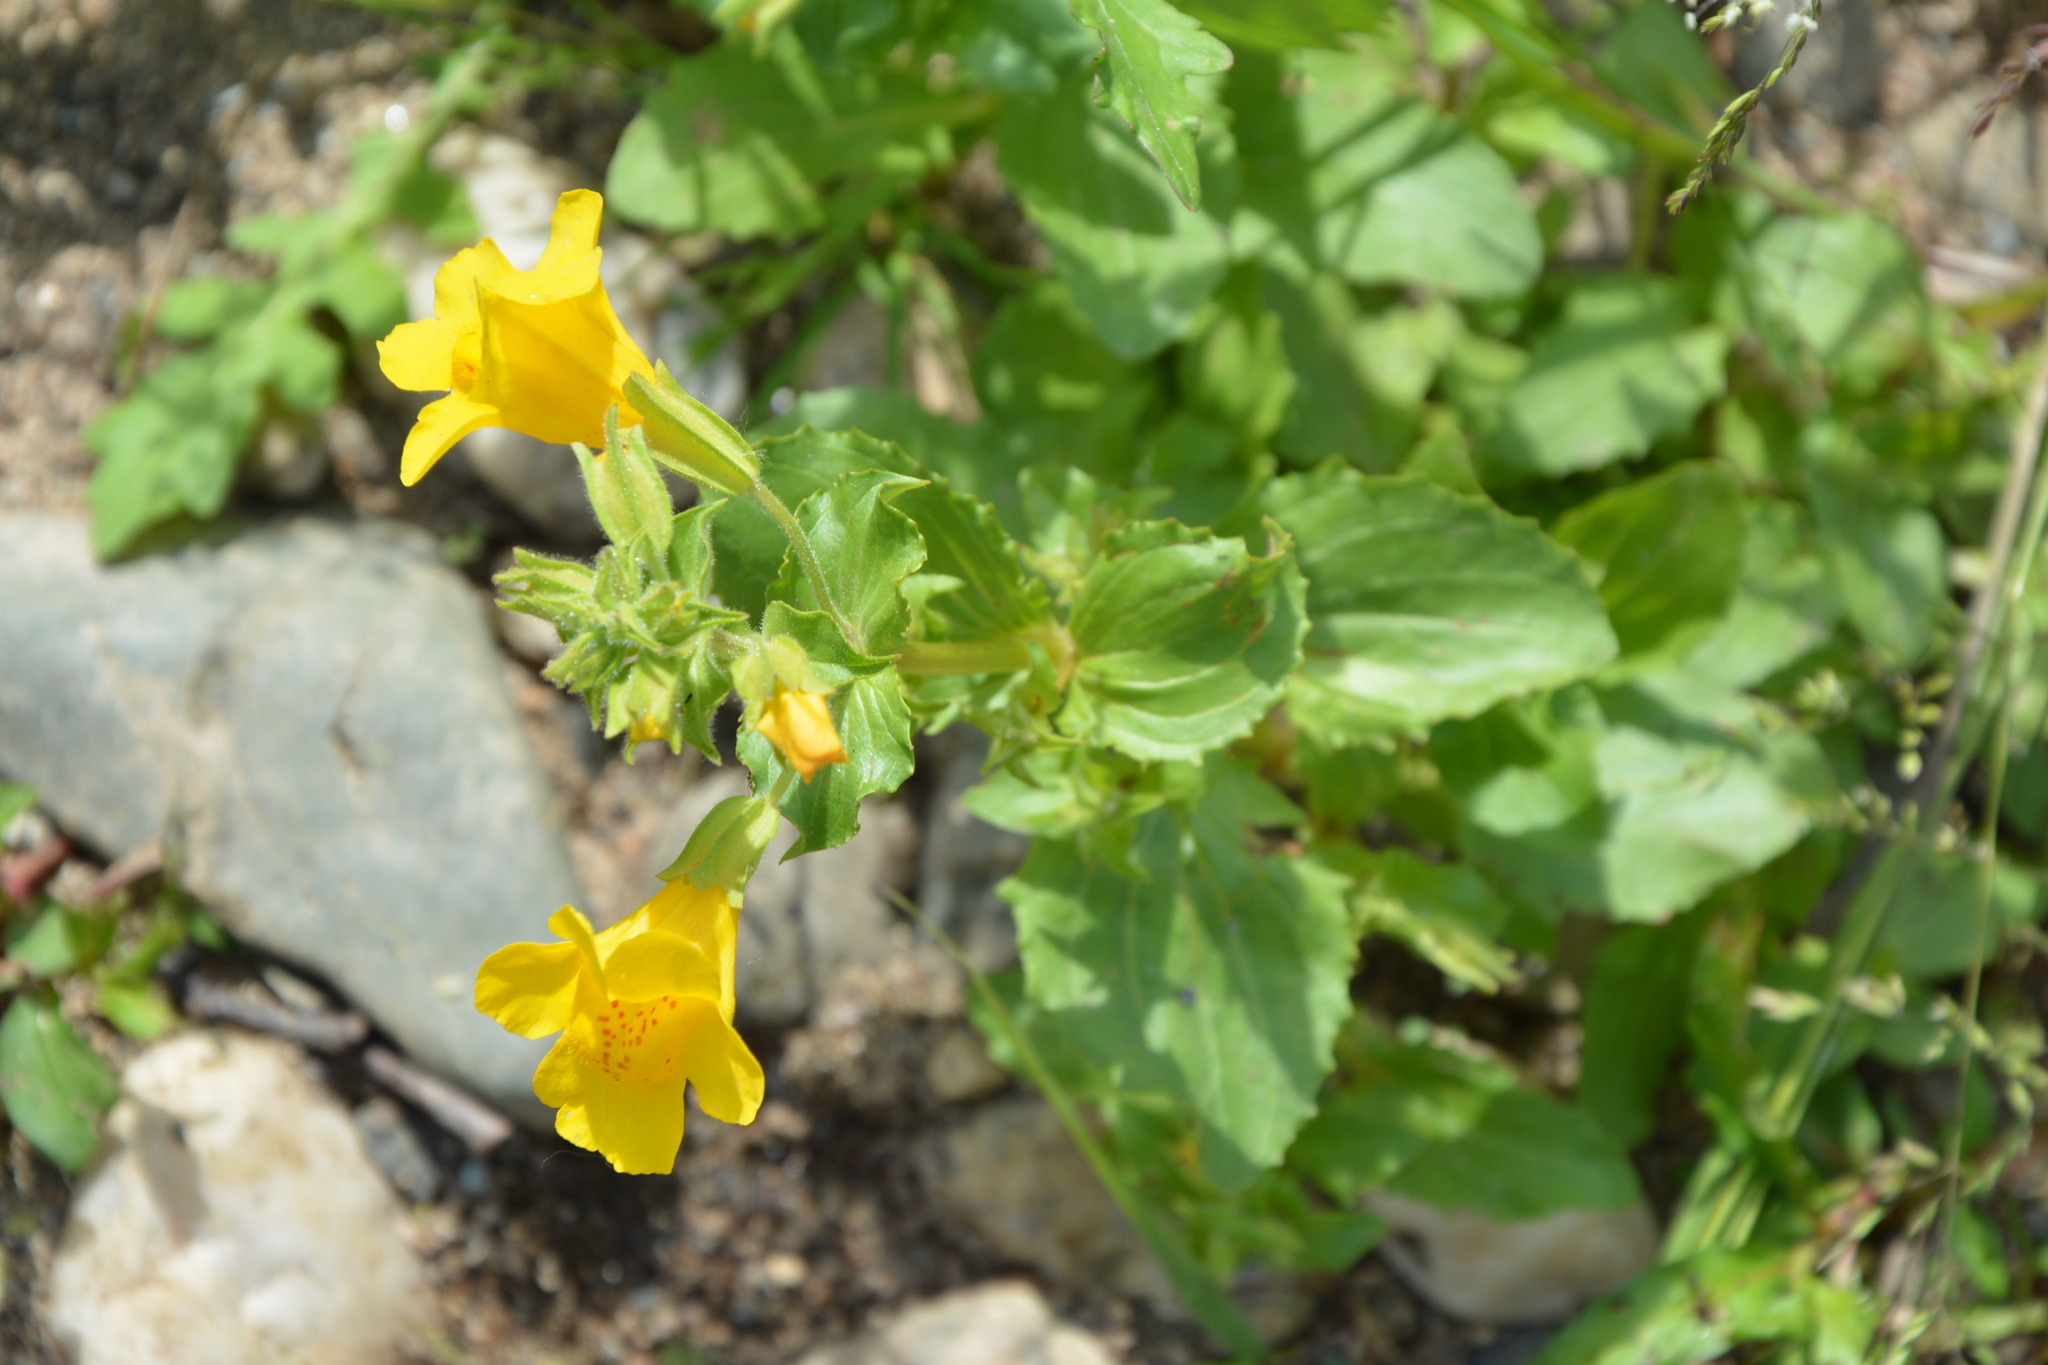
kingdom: Plantae
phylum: Tracheophyta
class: Magnoliopsida
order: Lamiales
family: Phrymaceae
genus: Erythranthe
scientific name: Erythranthe guttata
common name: Monkeyflower
